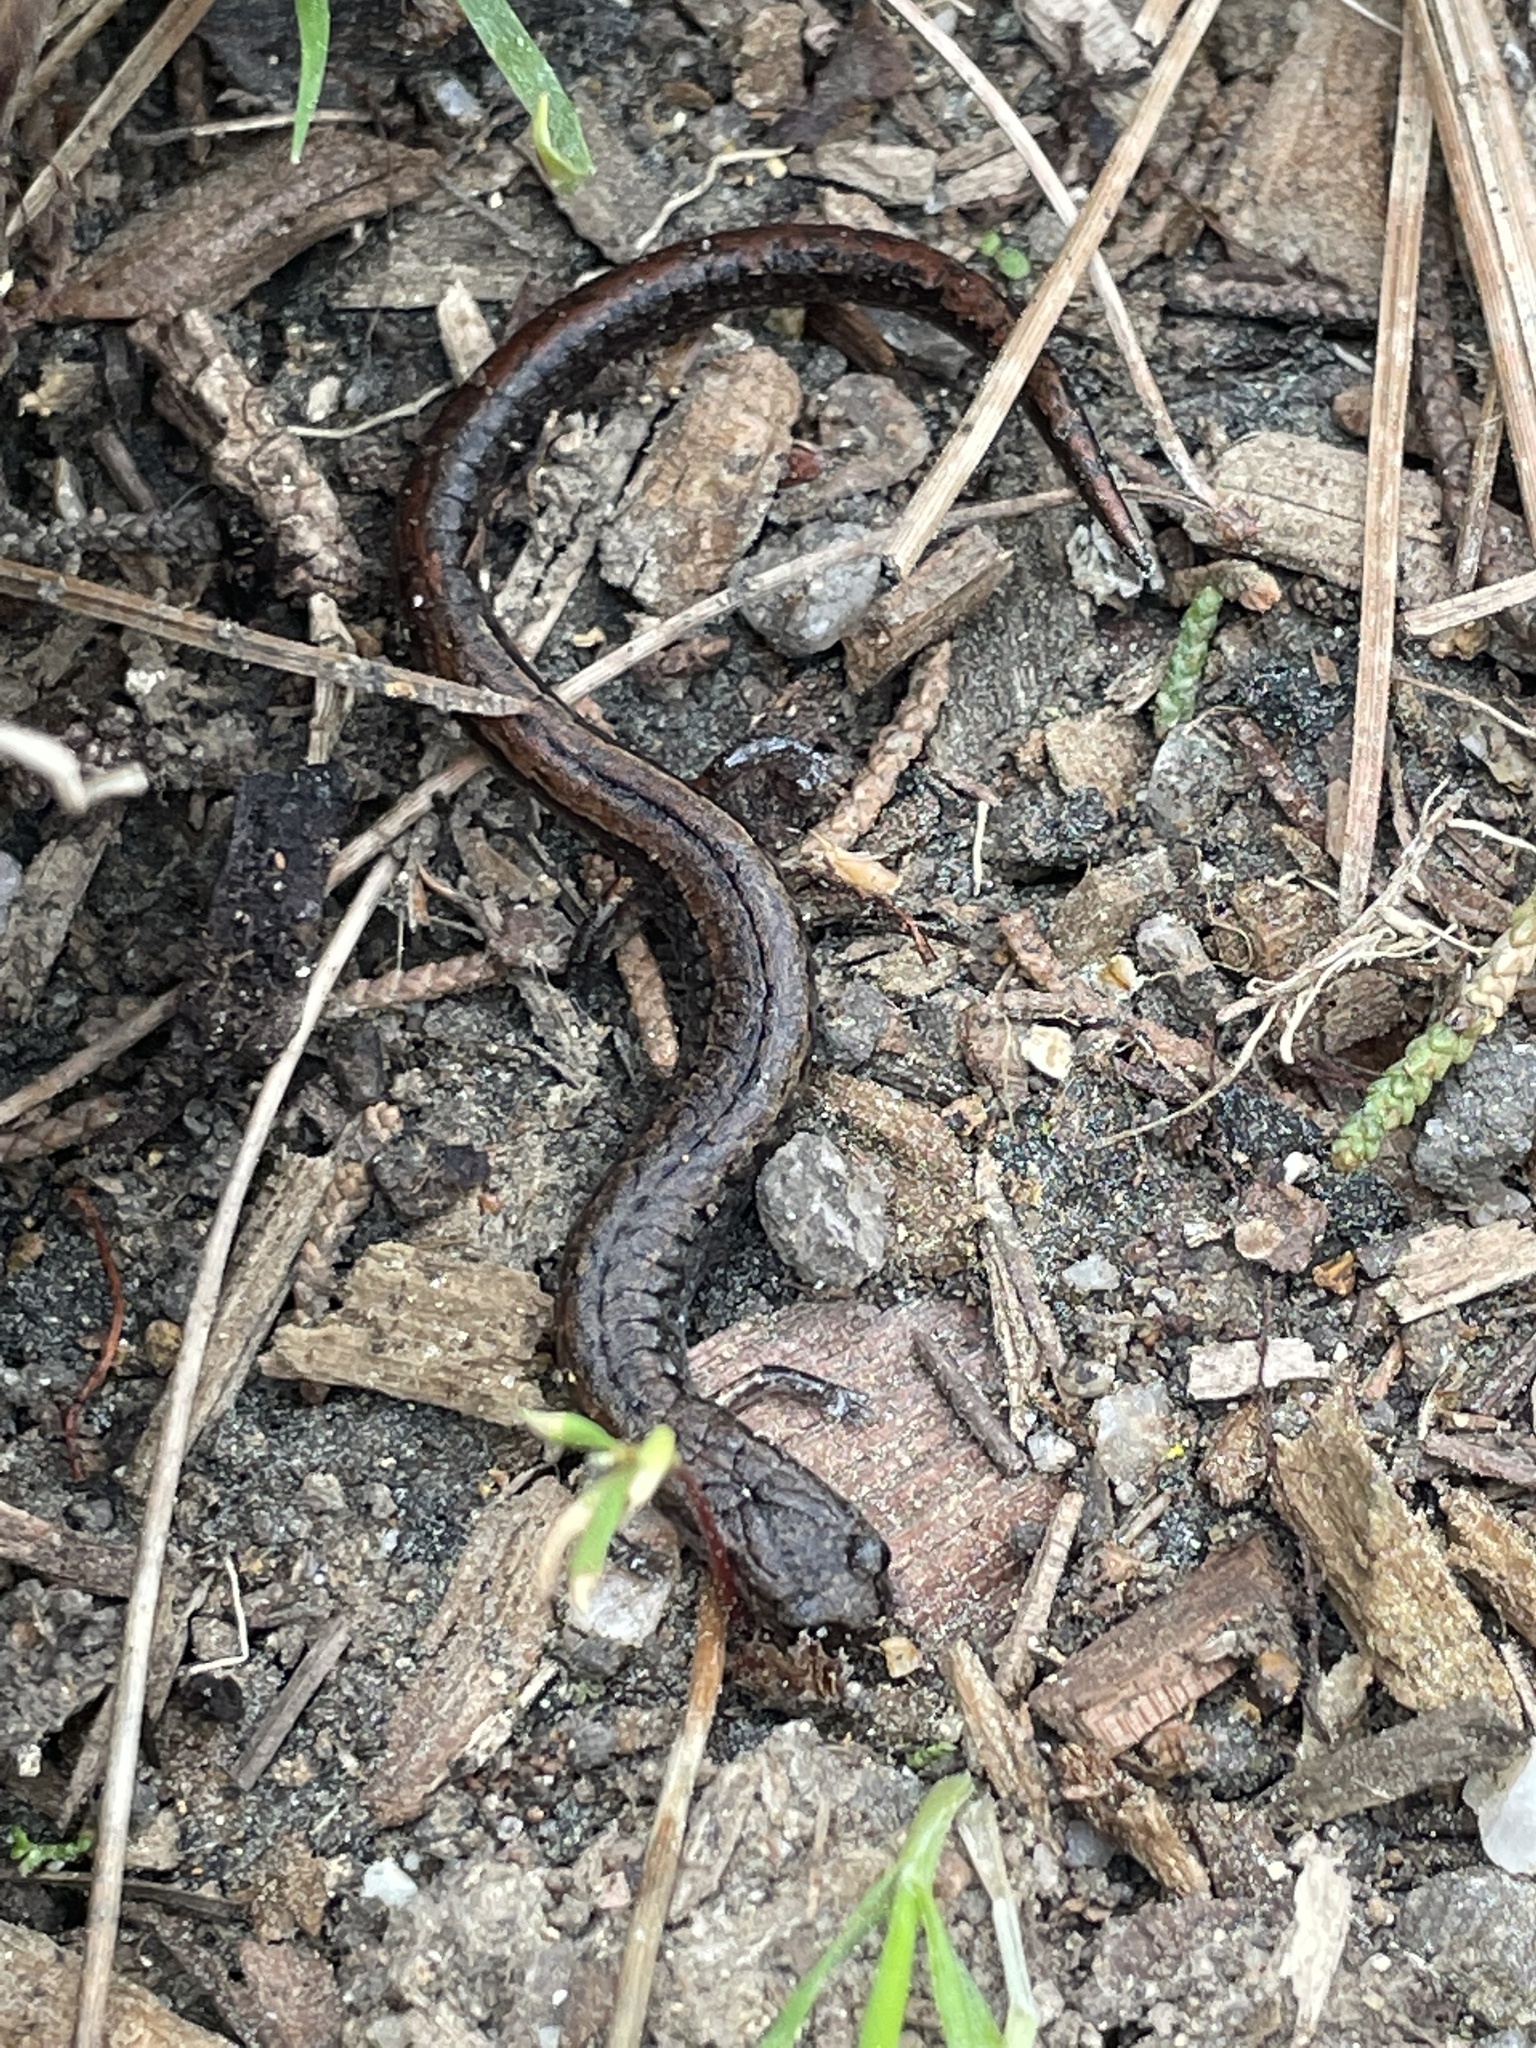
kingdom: Animalia
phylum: Chordata
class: Amphibia
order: Caudata
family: Plethodontidae
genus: Batrachoseps
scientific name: Batrachoseps attenuatus
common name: California slender salamander
